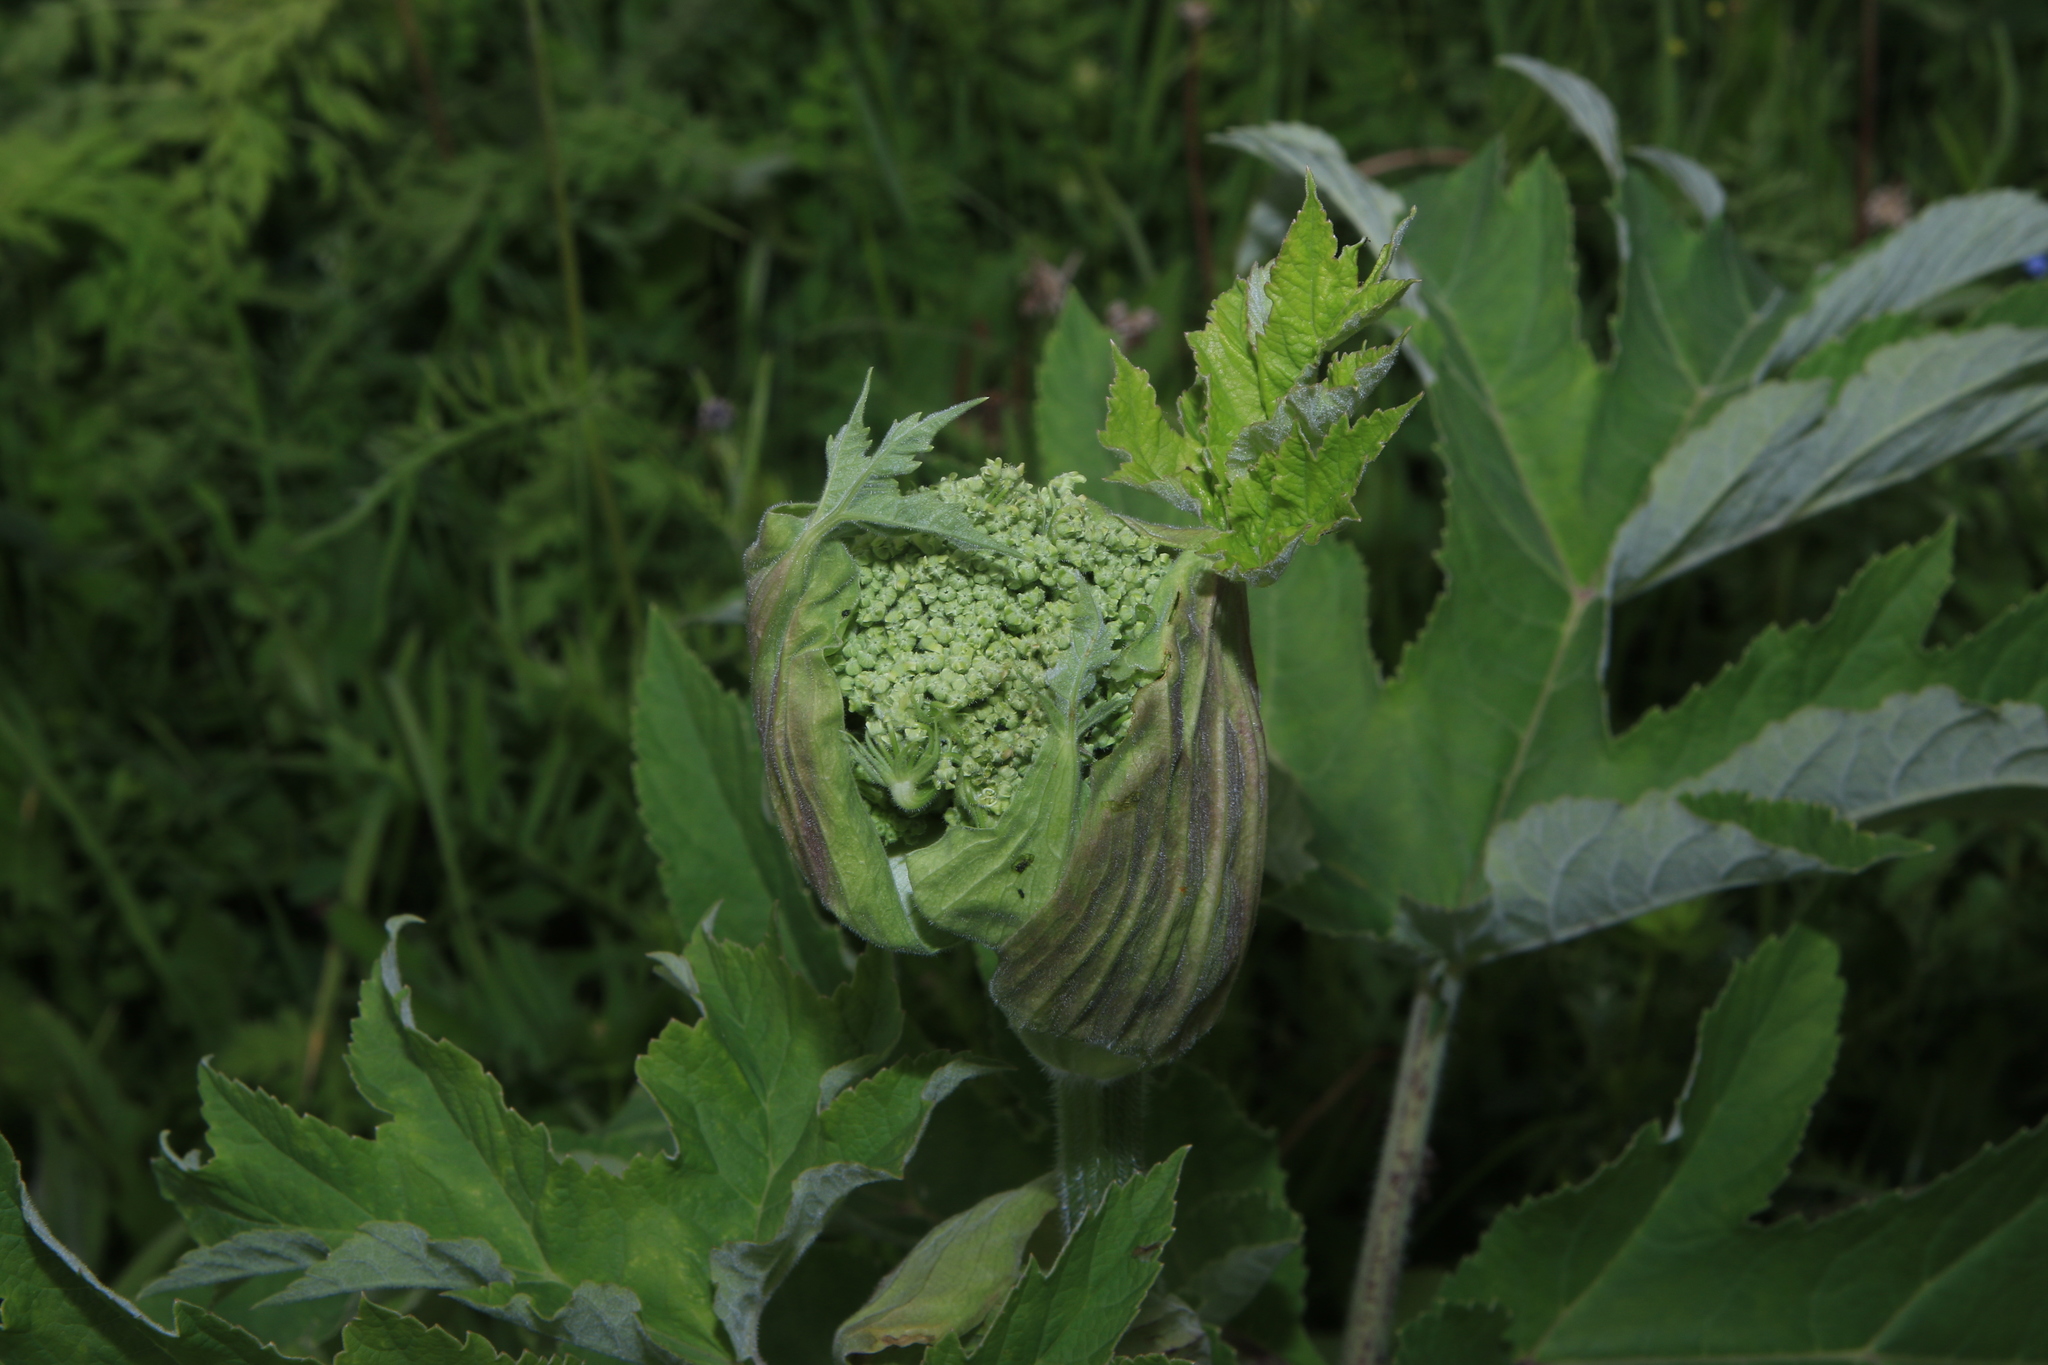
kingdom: Plantae
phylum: Tracheophyta
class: Magnoliopsida
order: Apiales
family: Apiaceae
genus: Heracleum
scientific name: Heracleum dissectum
